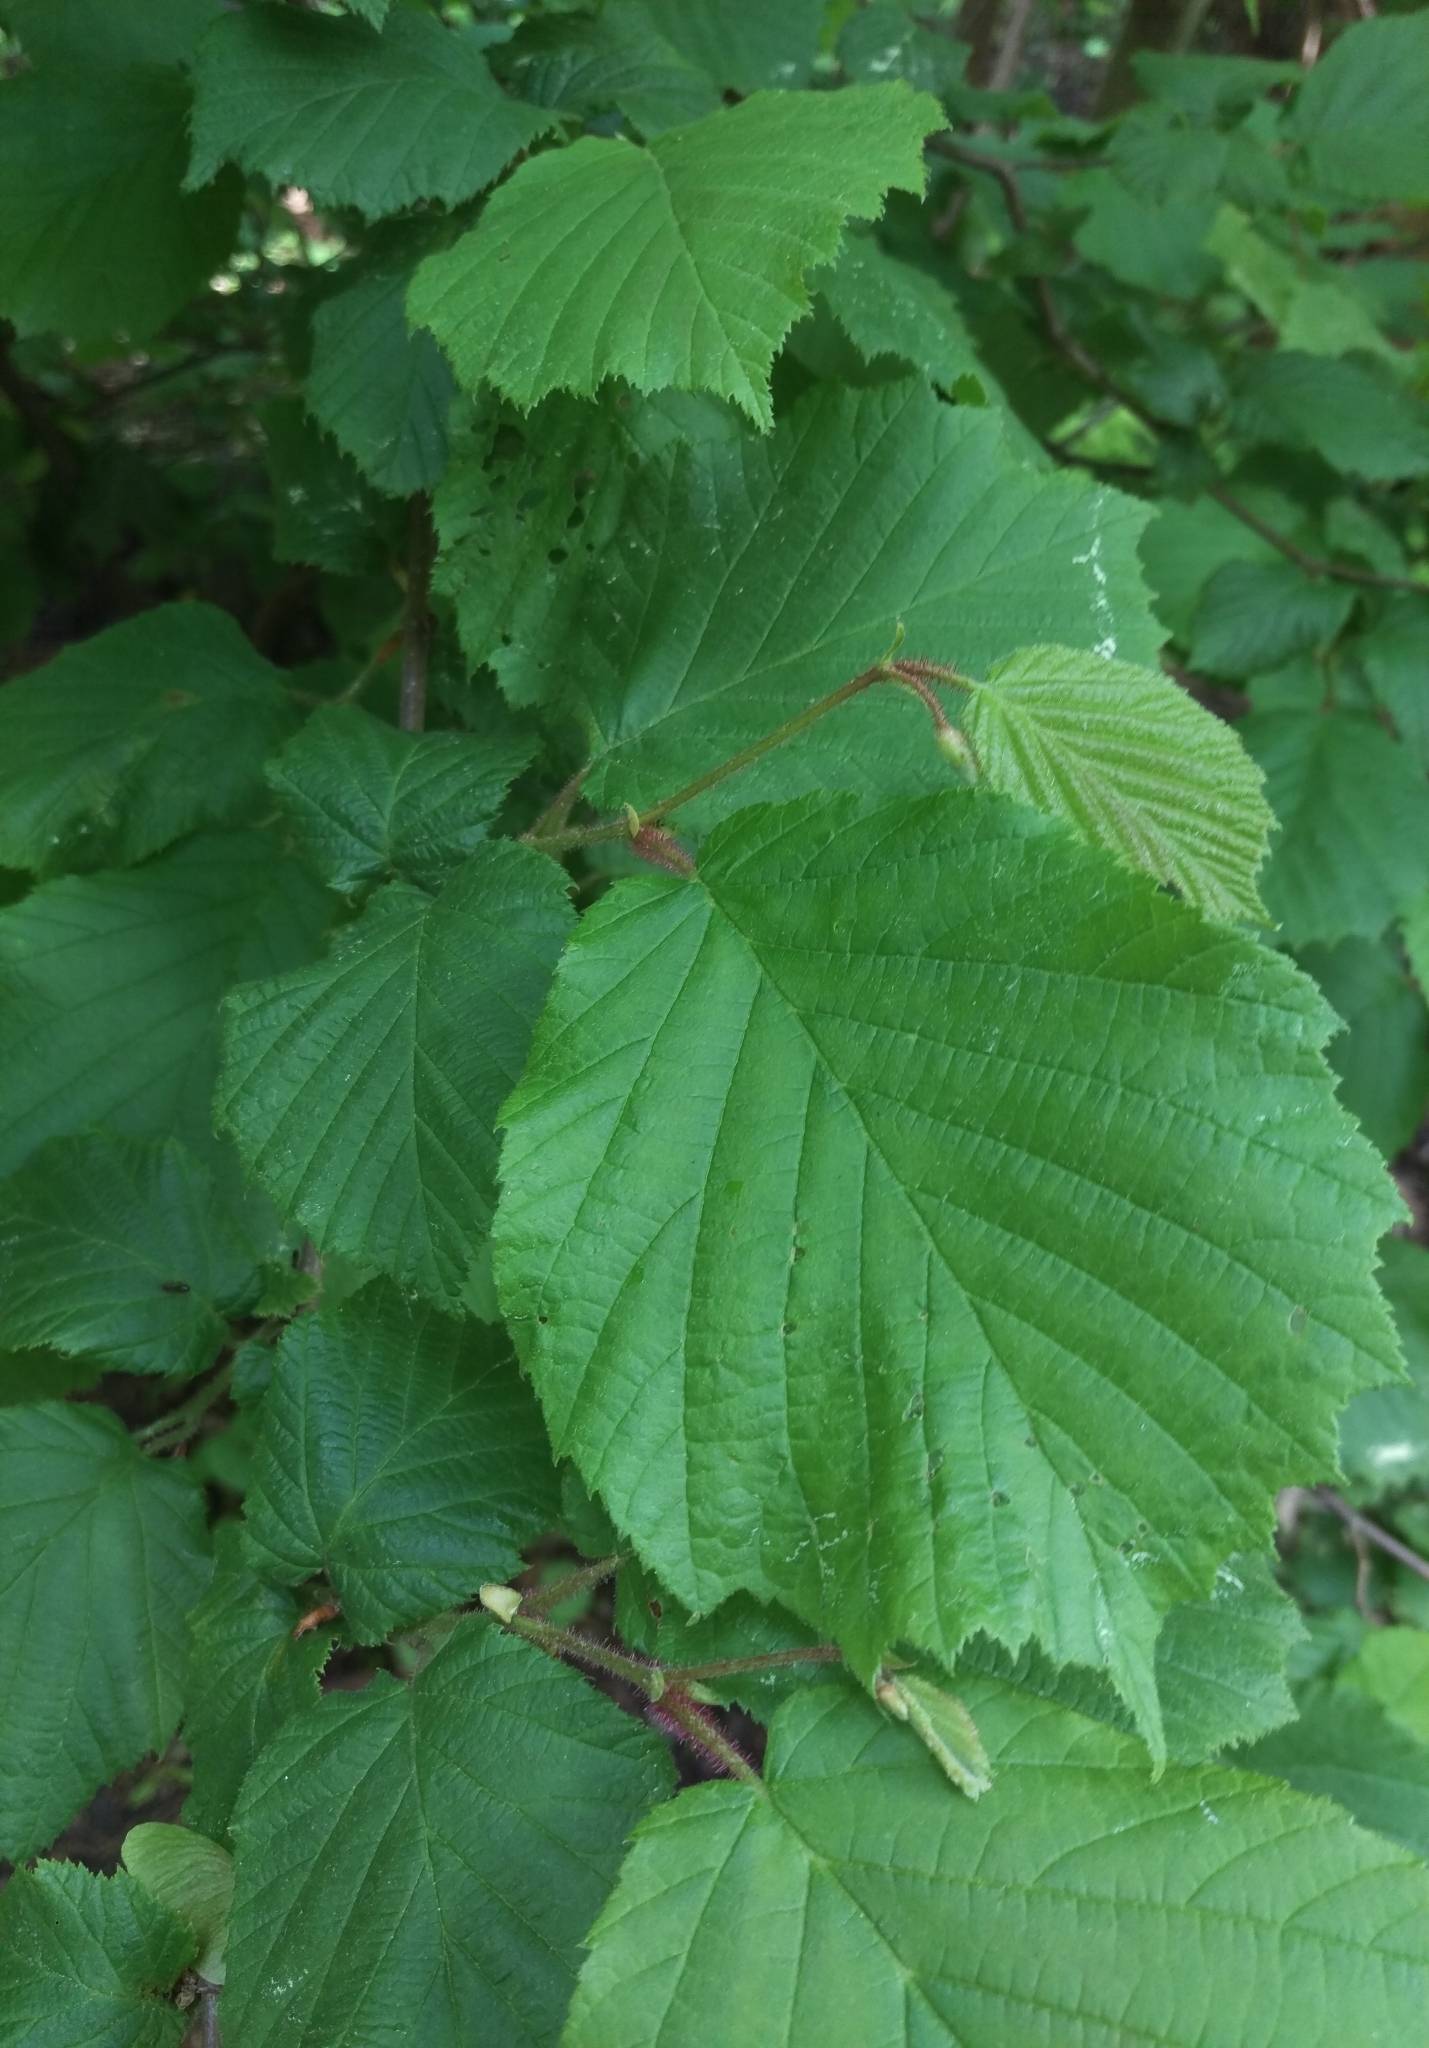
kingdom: Plantae
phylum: Tracheophyta
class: Magnoliopsida
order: Fagales
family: Betulaceae
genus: Corylus
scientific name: Corylus avellana
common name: European hazel
